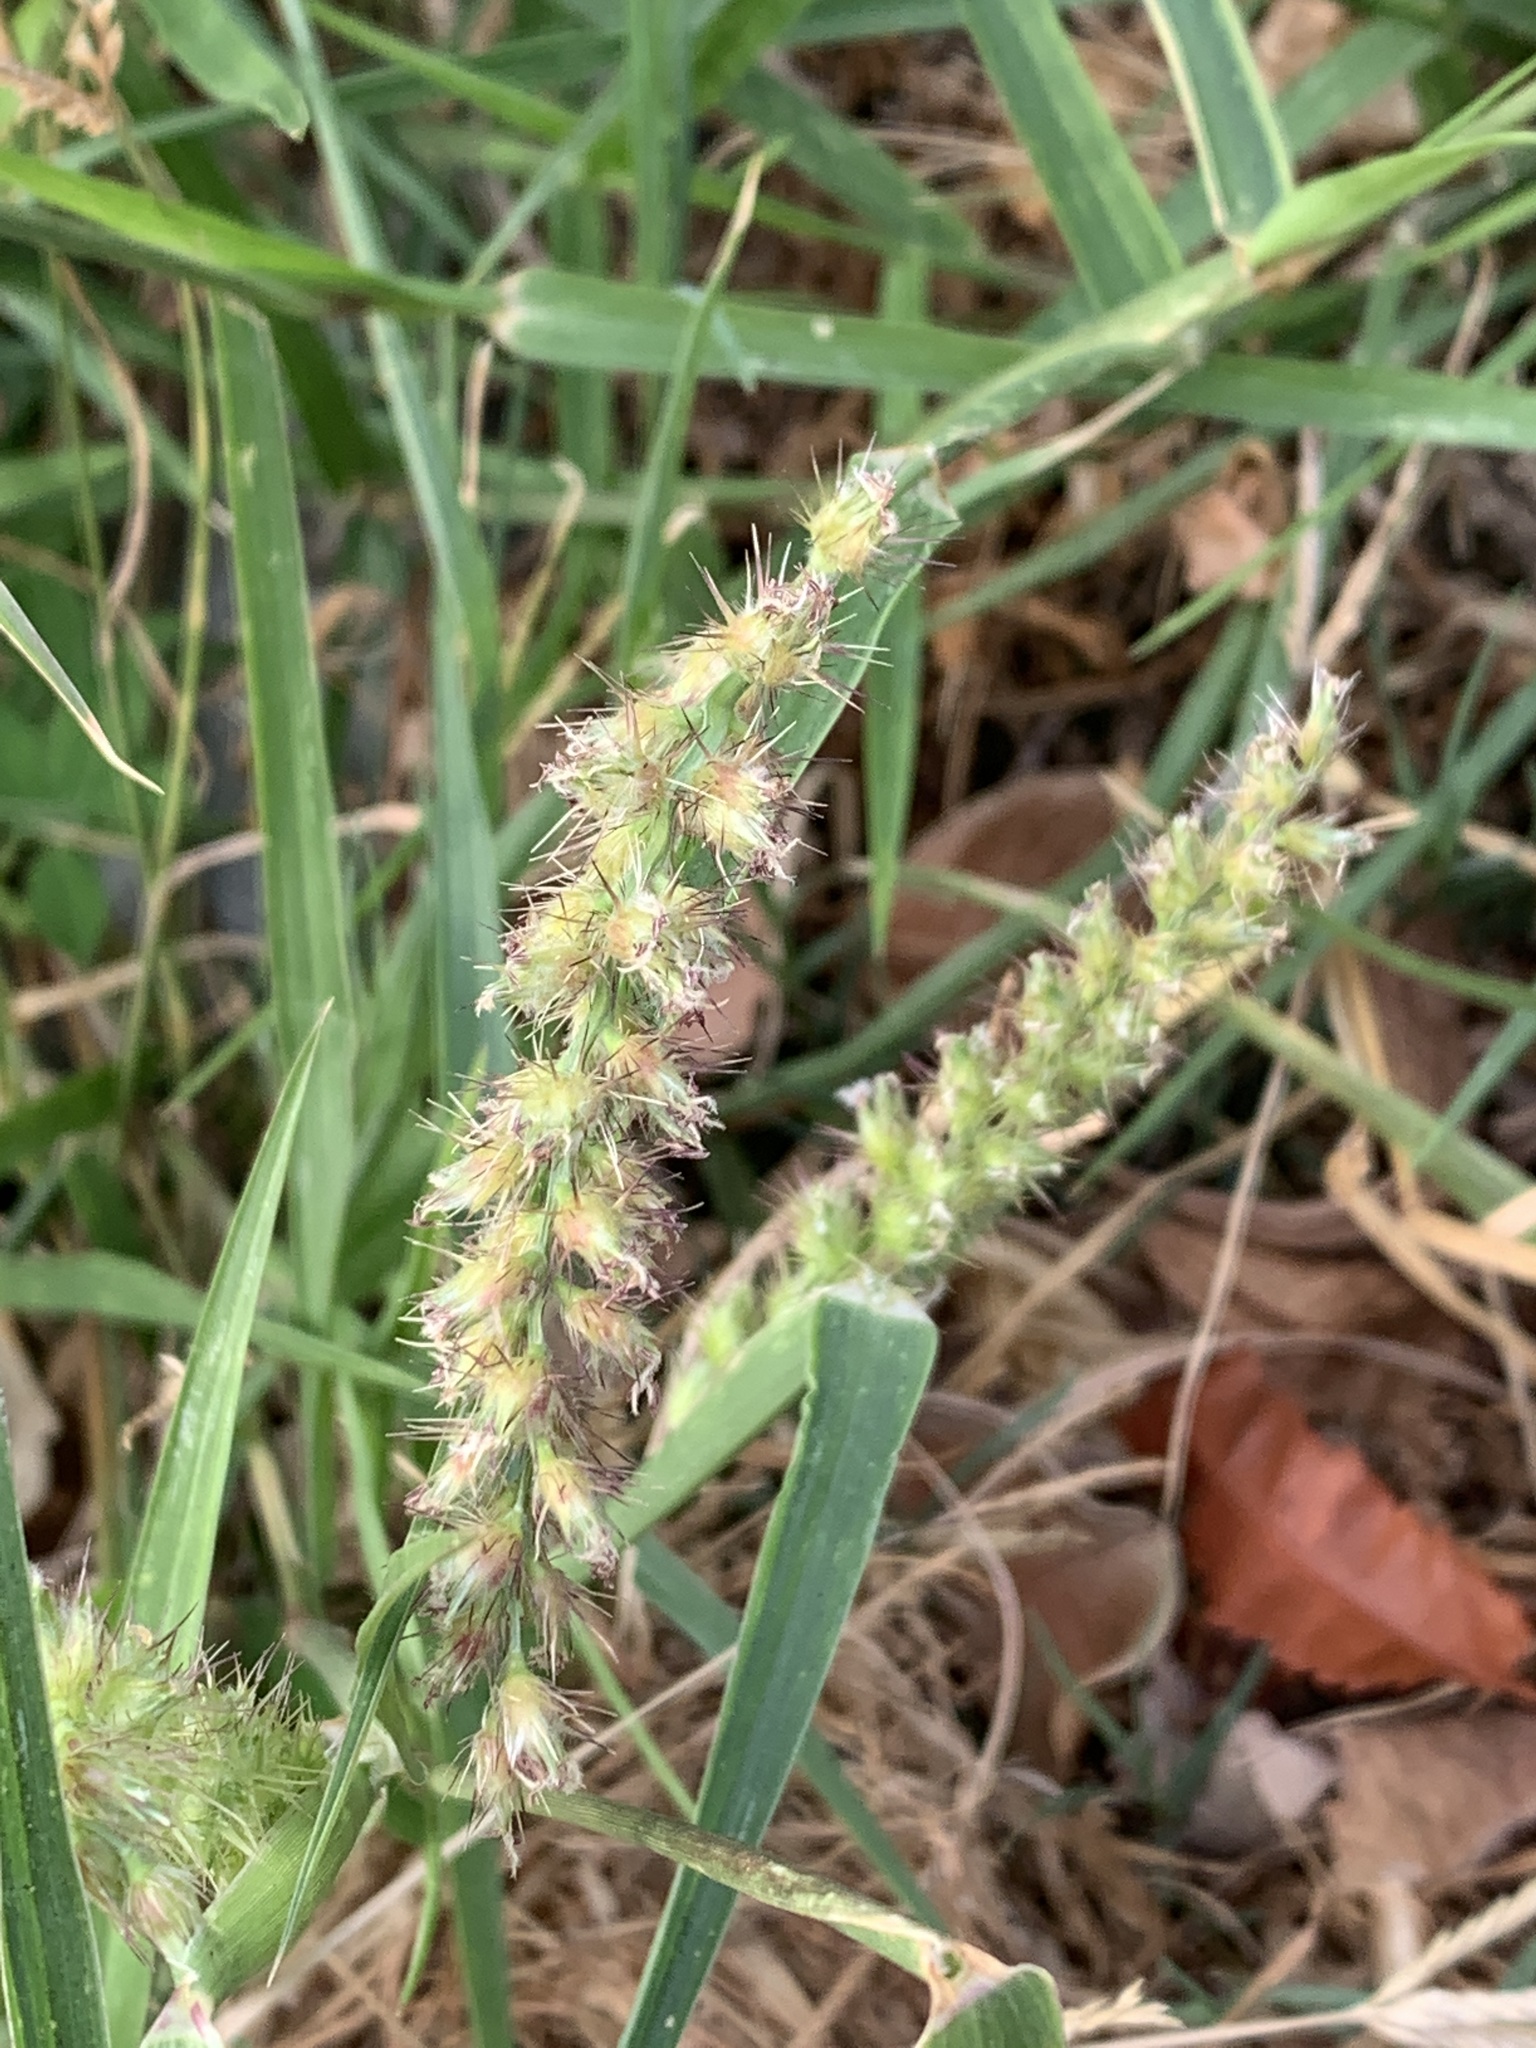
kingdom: Plantae
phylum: Tracheophyta
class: Liliopsida
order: Poales
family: Poaceae
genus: Cenchrus
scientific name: Cenchrus echinatus
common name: Southern sandbur
